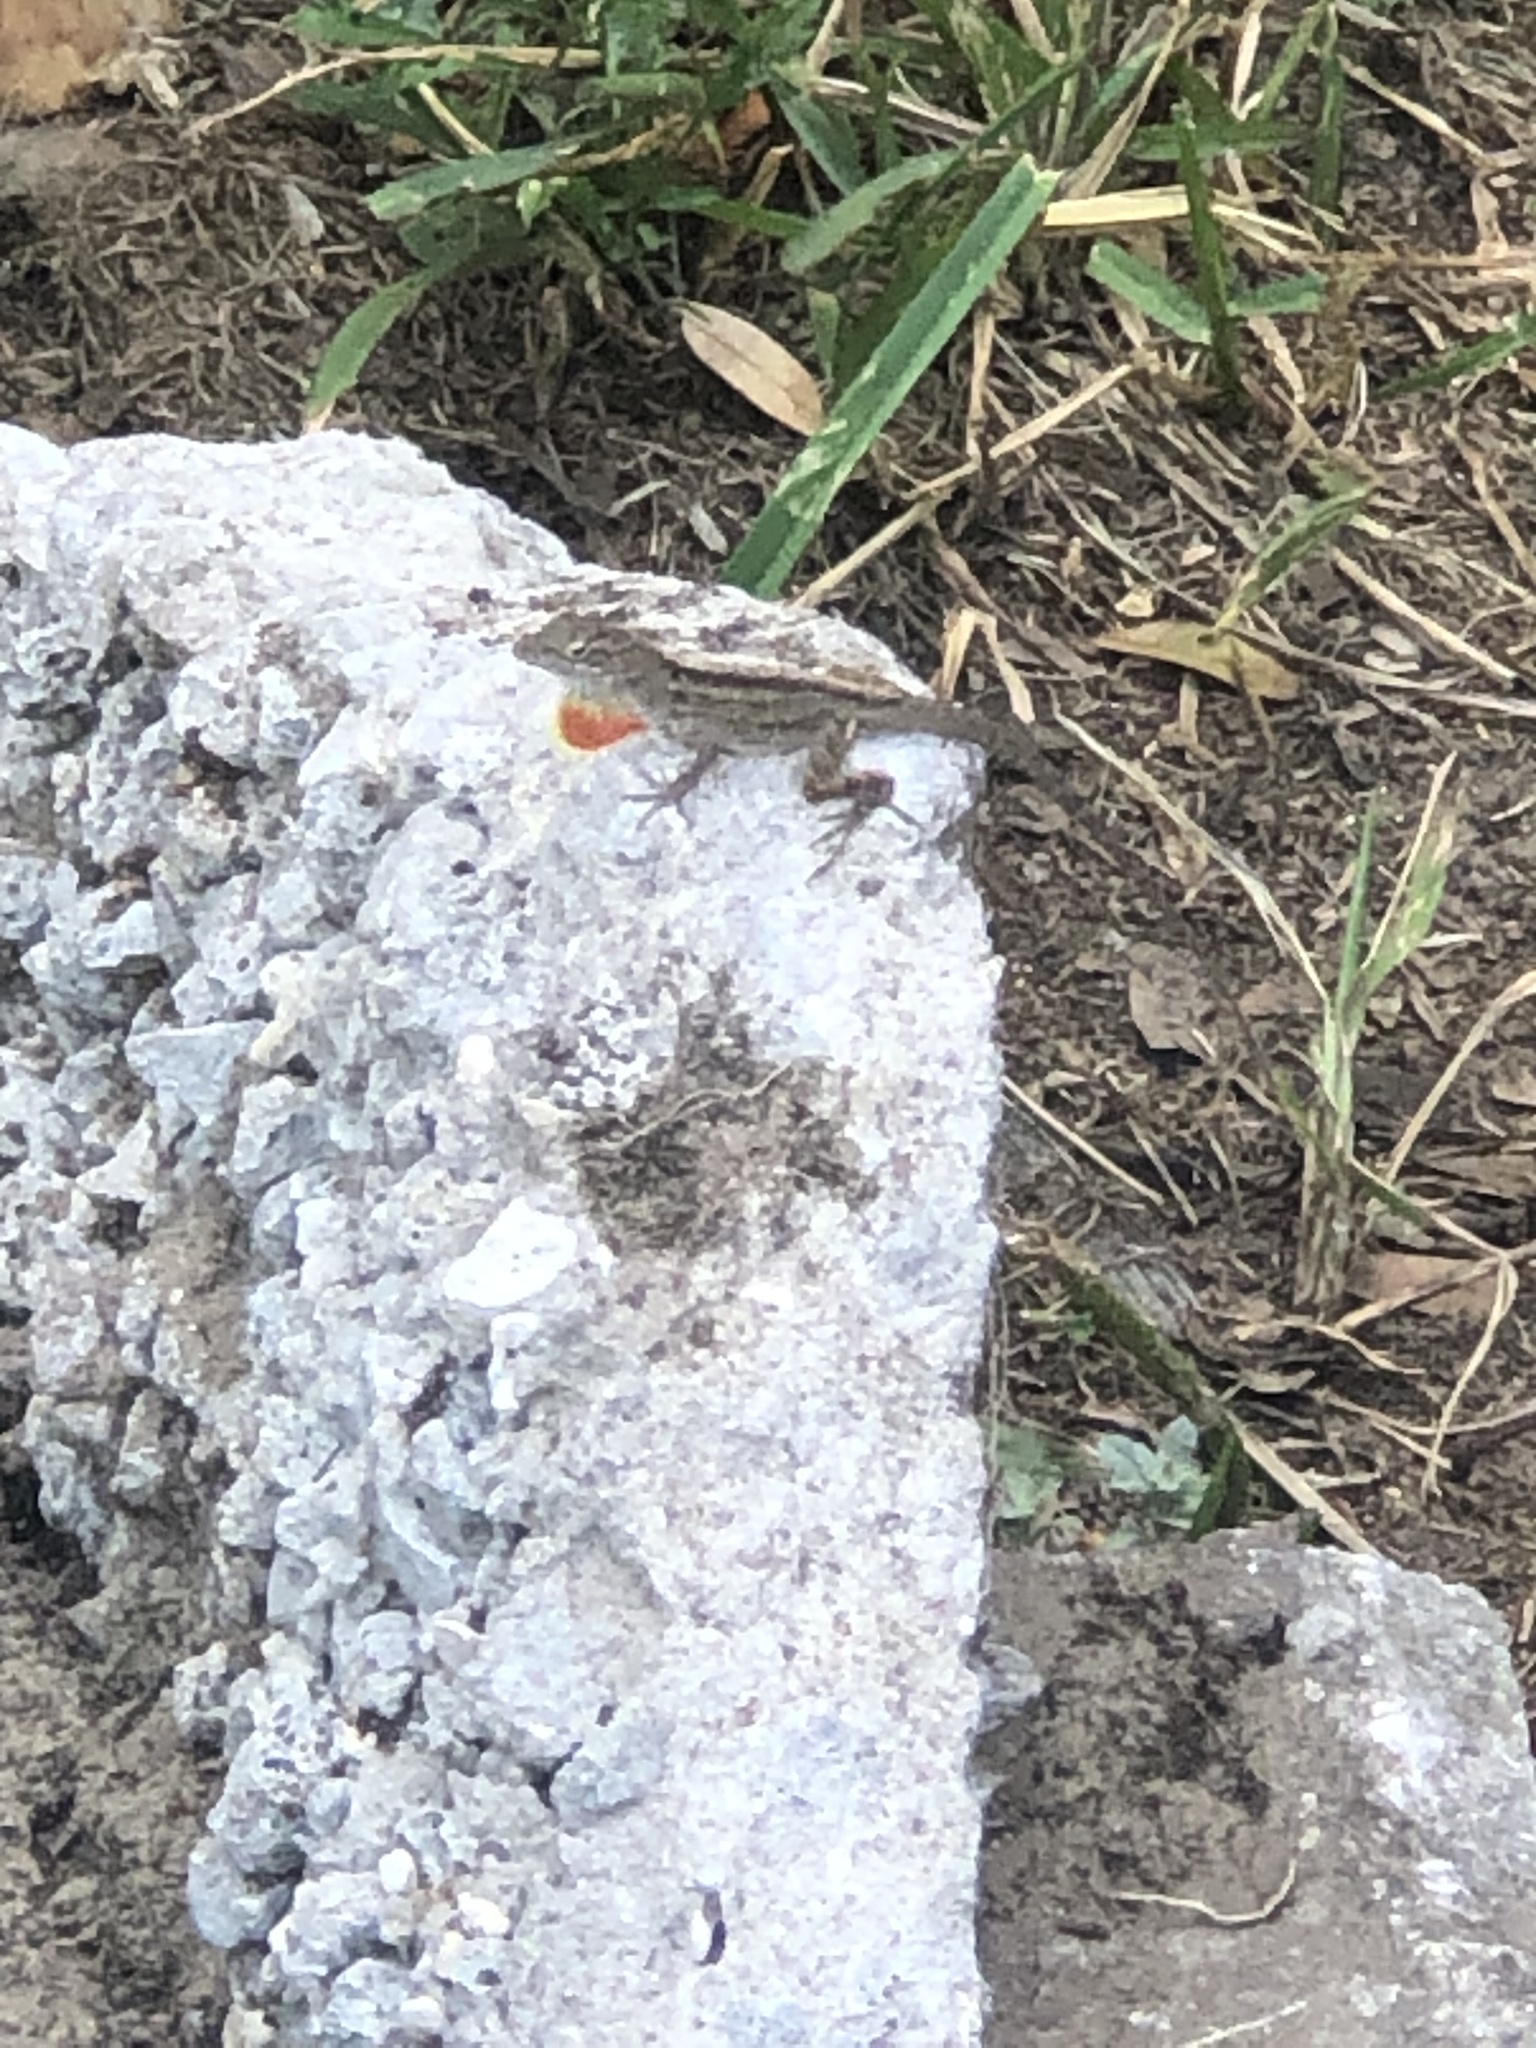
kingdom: Animalia
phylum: Chordata
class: Squamata
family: Dactyloidae
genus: Anolis
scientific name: Anolis sagrei
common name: Brown anole
